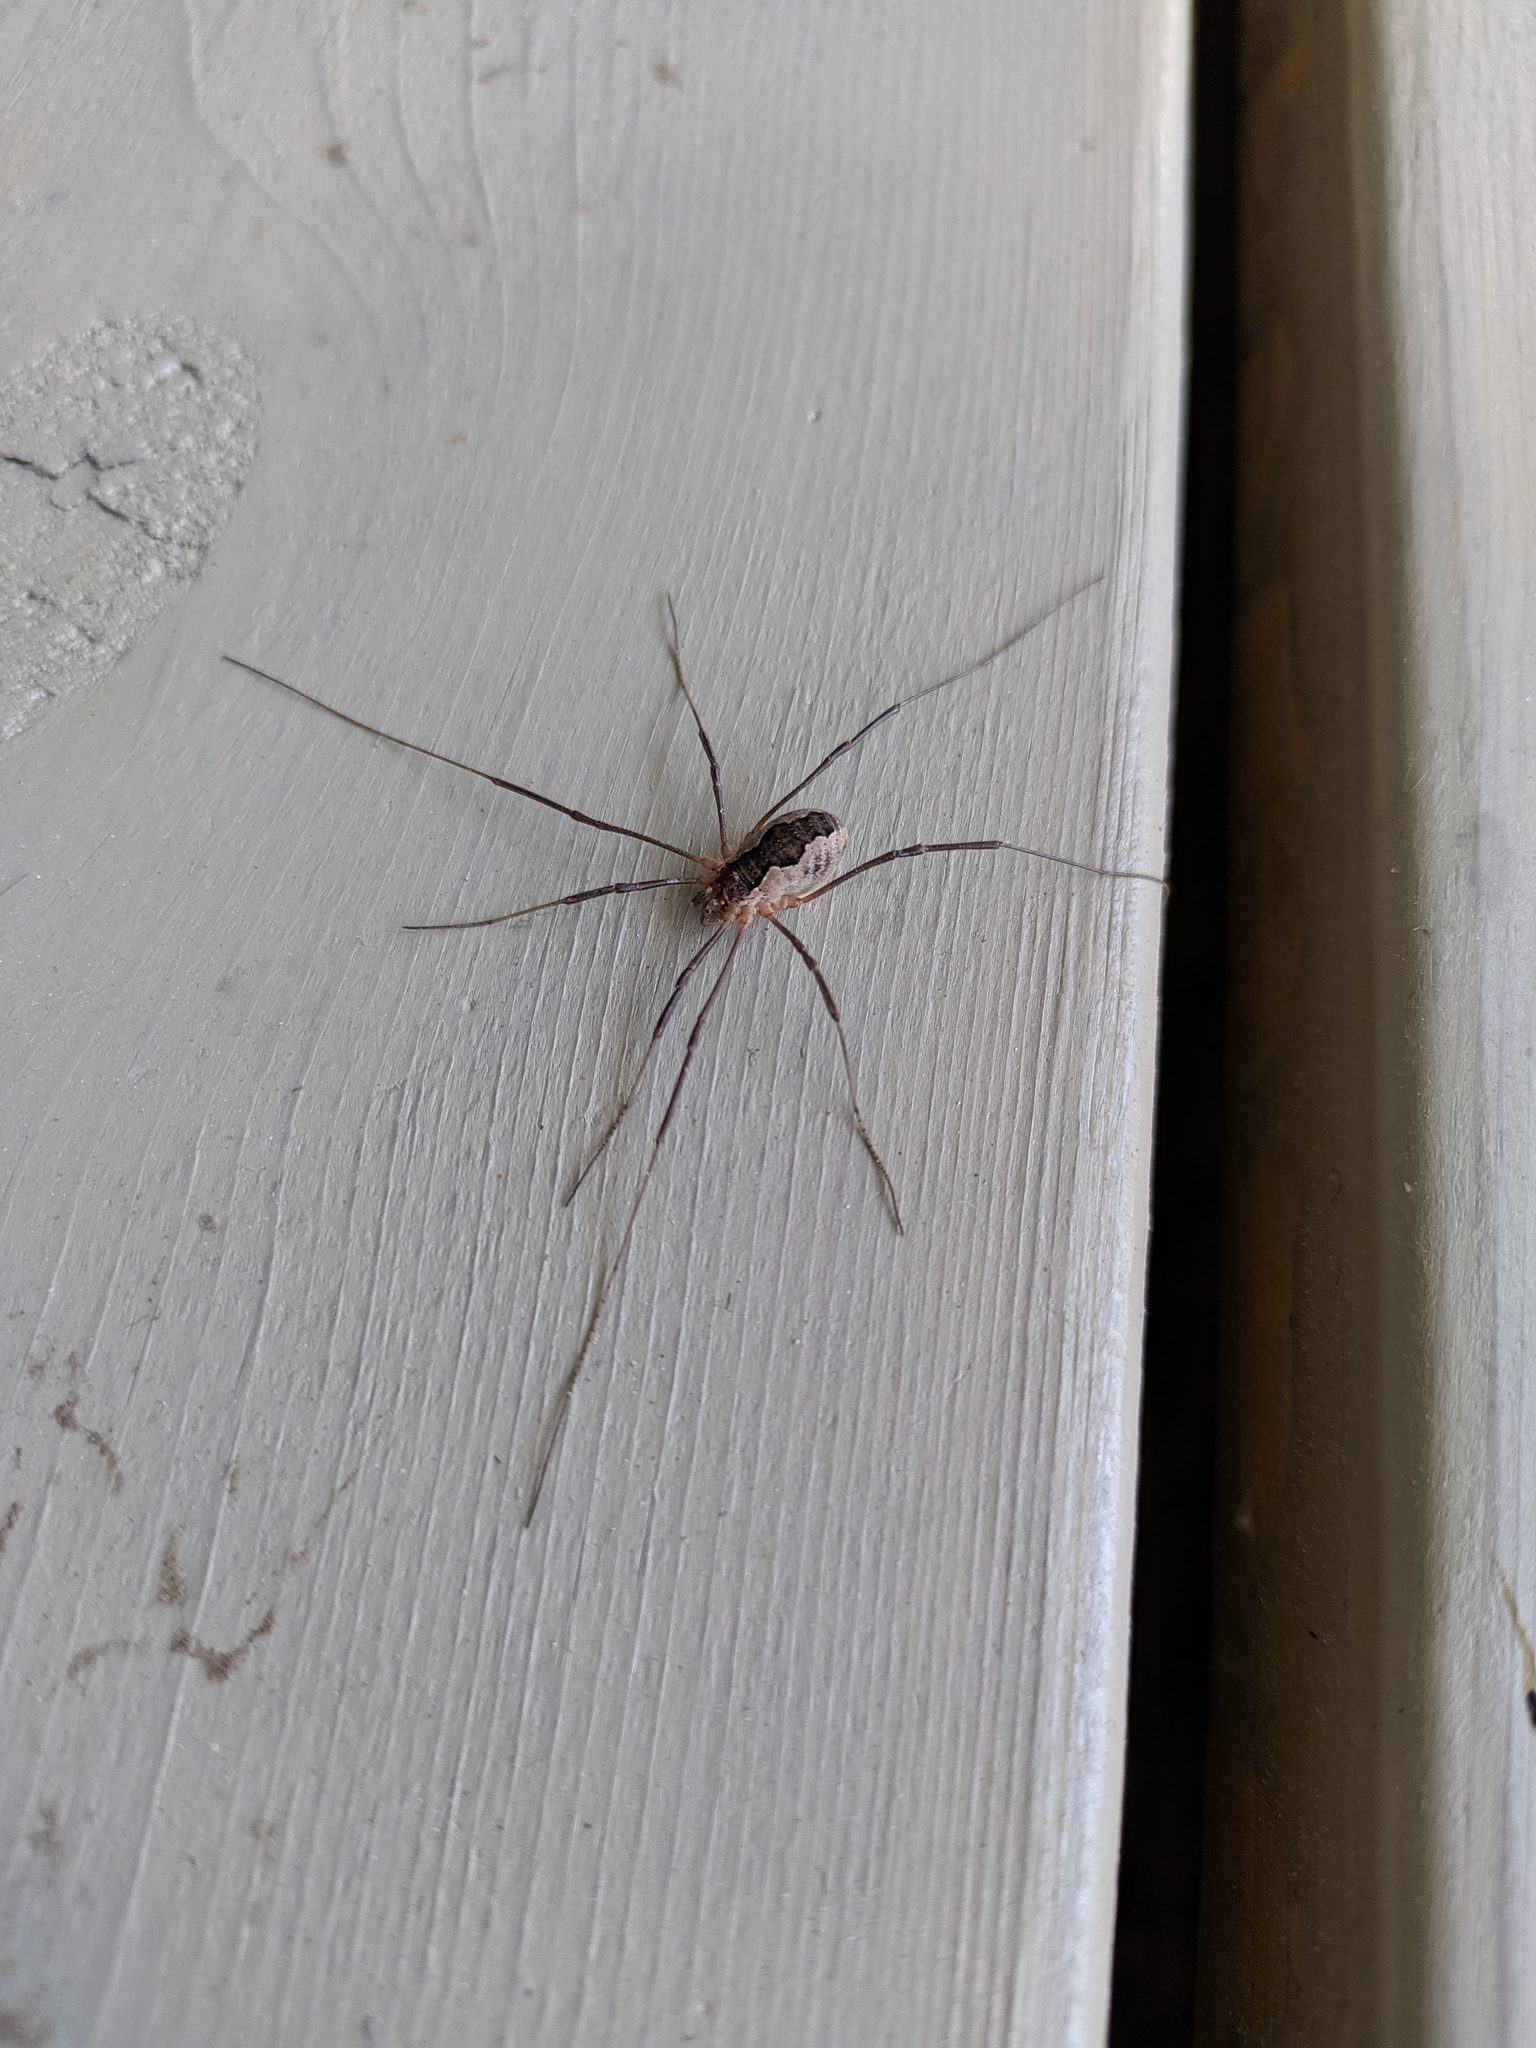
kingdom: Animalia
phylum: Arthropoda
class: Arachnida
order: Opiliones
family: Phalangiidae
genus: Mitopus
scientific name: Mitopus morio
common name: Saddleback harvestman
